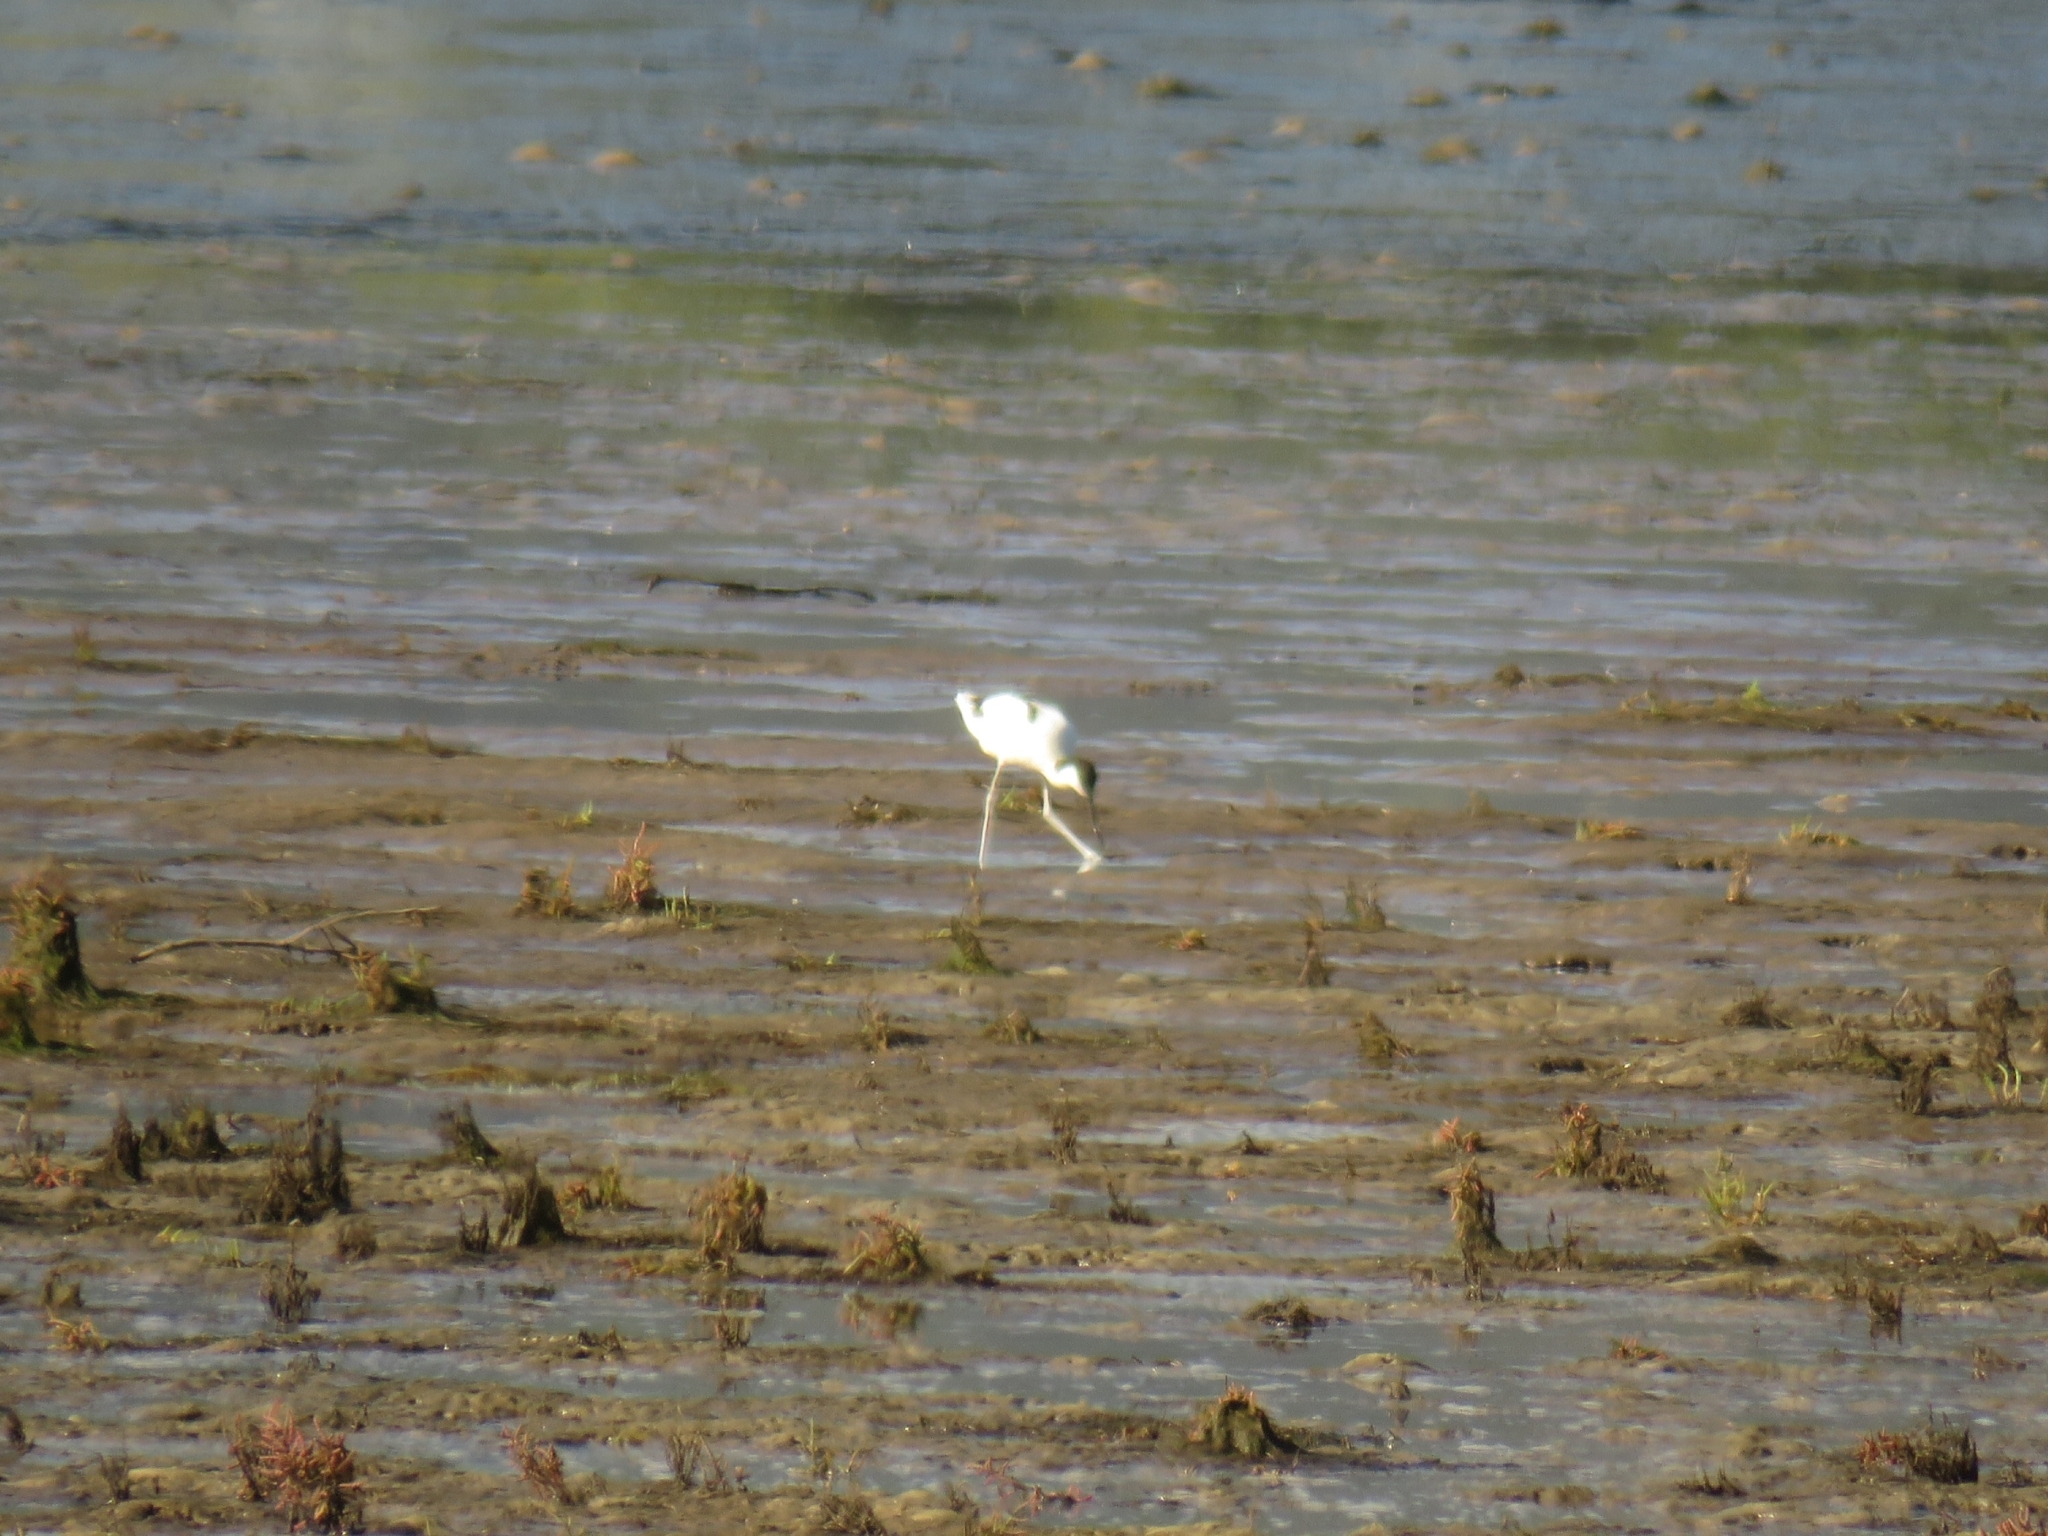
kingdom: Animalia
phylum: Chordata
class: Aves
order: Charadriiformes
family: Recurvirostridae
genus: Recurvirostra
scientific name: Recurvirostra avosetta
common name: Pied avocet
